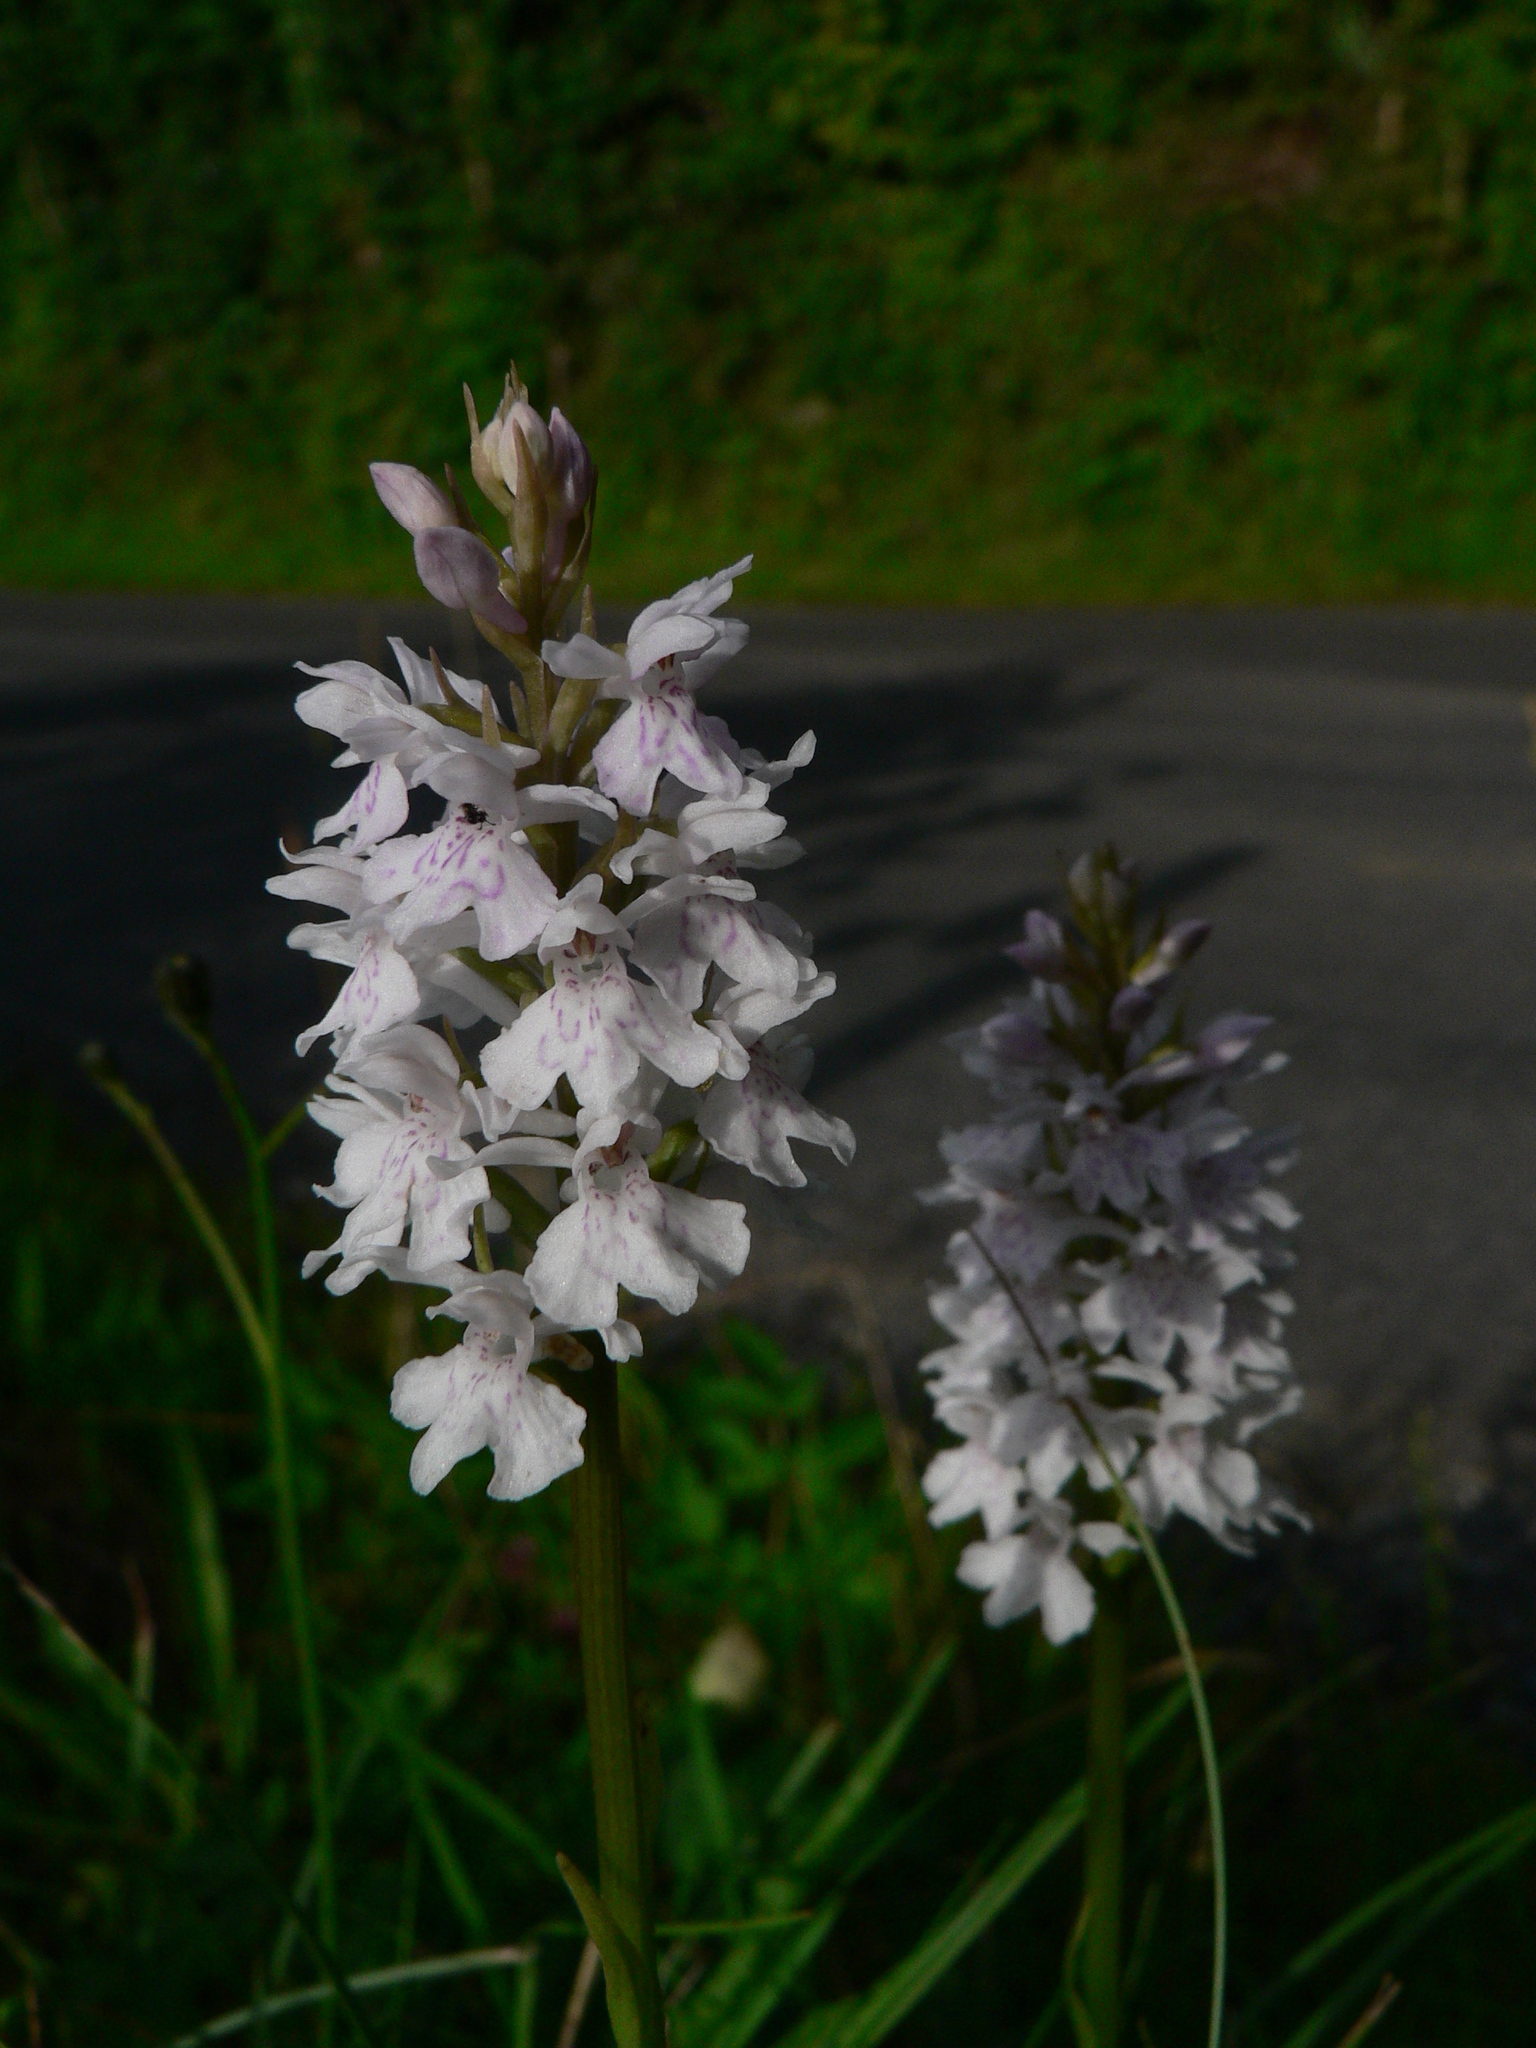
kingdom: Plantae
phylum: Tracheophyta
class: Liliopsida
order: Asparagales
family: Orchidaceae
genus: Dactylorhiza
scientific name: Dactylorhiza maculata
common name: Heath spotted-orchid
